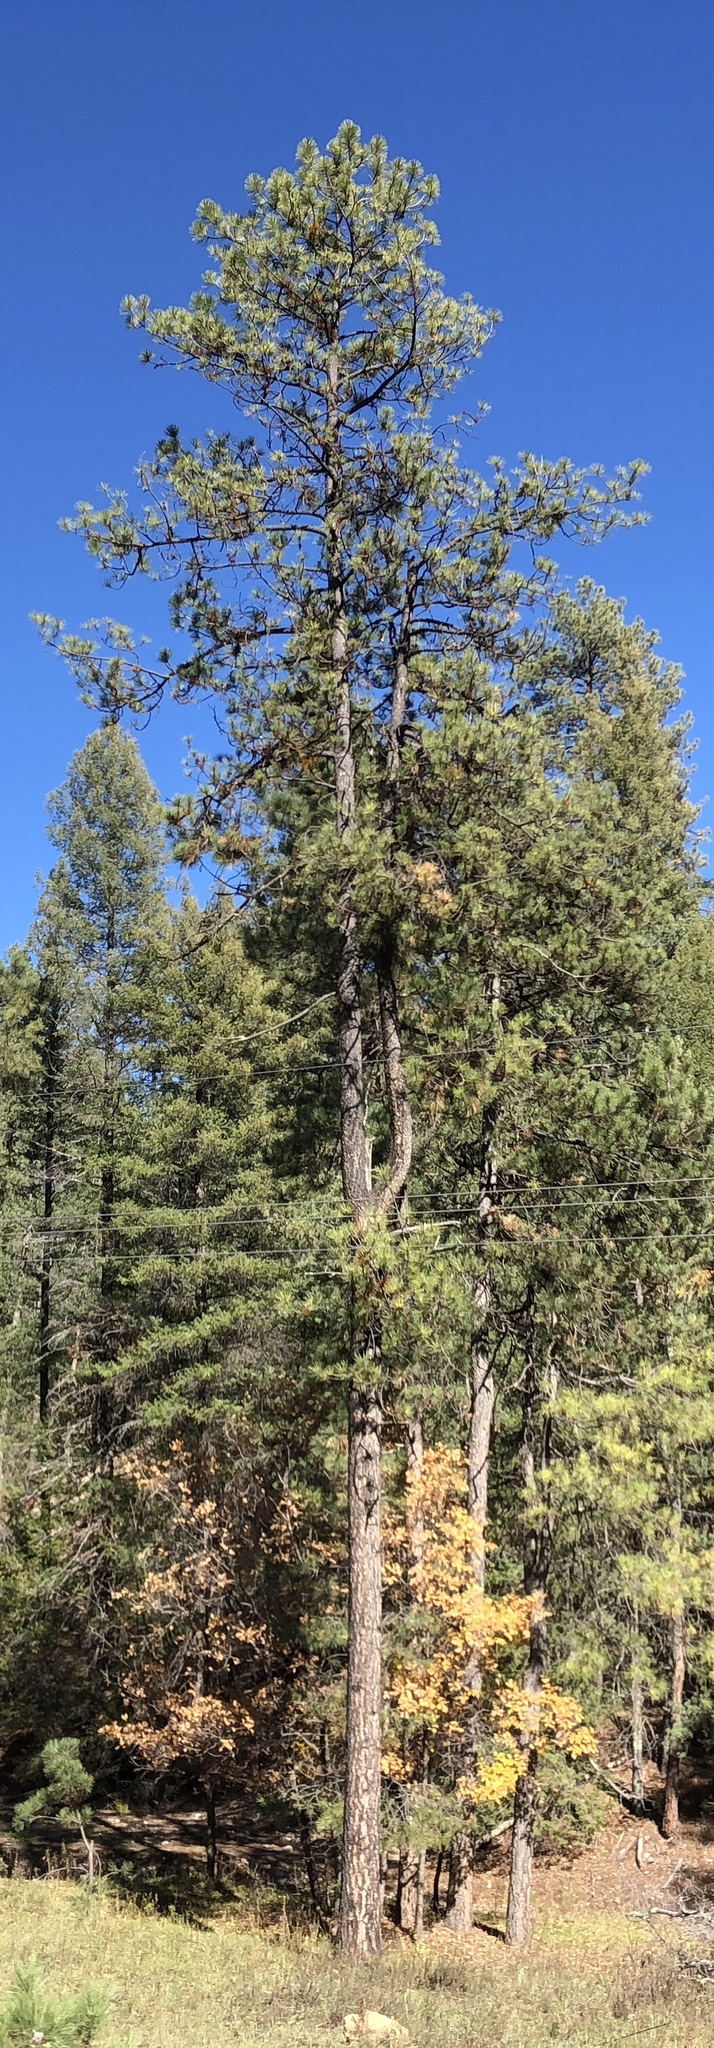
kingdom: Plantae
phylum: Tracheophyta
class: Pinopsida
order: Pinales
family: Pinaceae
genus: Pinus
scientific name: Pinus ponderosa
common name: Western yellow-pine
